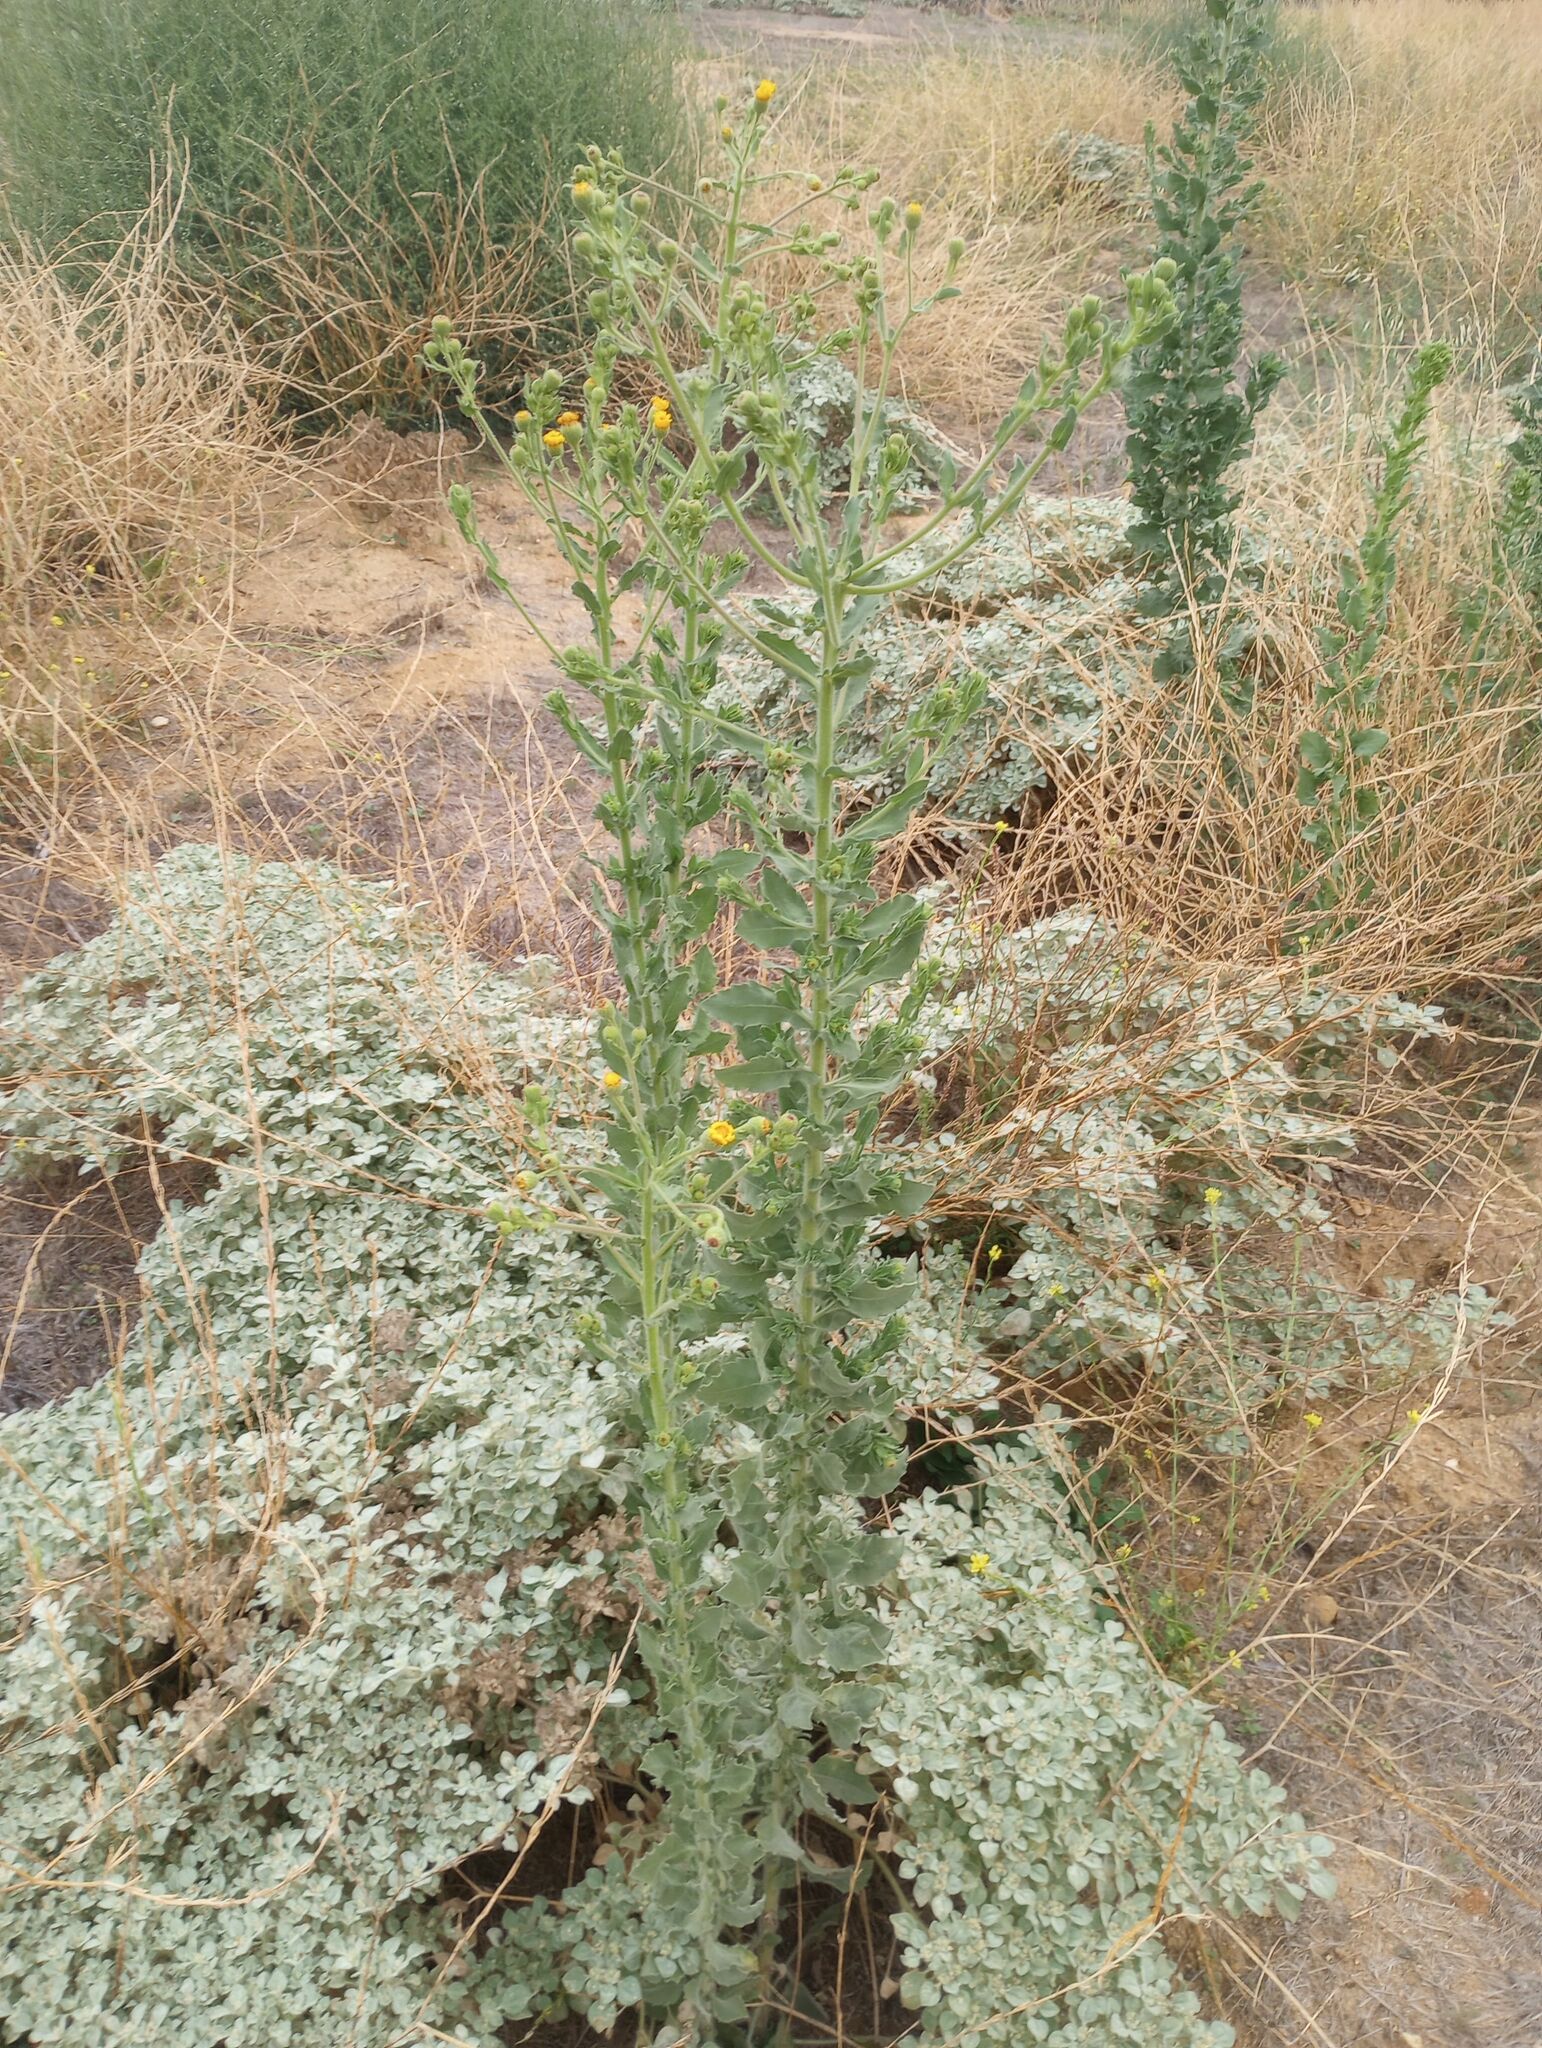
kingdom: Plantae
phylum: Tracheophyta
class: Magnoliopsida
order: Asterales
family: Asteraceae
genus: Heterotheca
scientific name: Heterotheca grandiflora
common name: Telegraphweed
